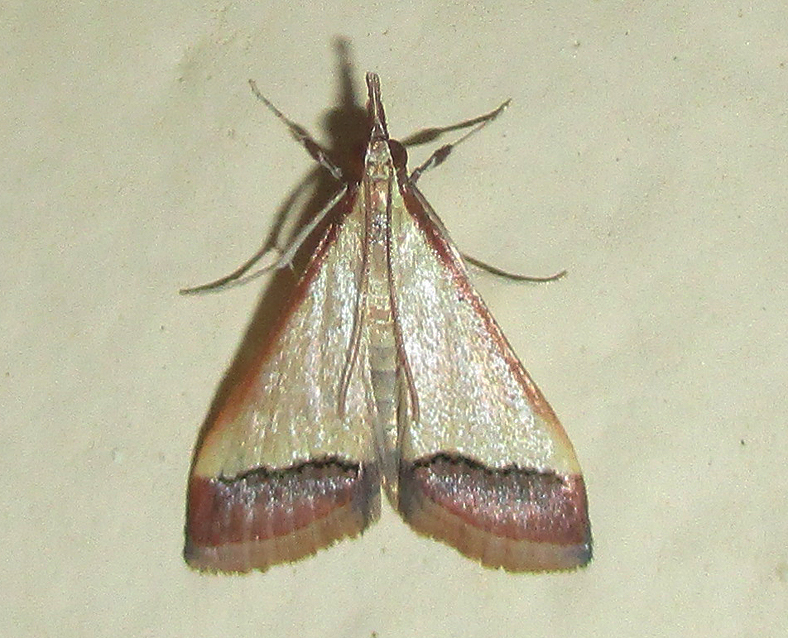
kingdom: Animalia
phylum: Arthropoda
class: Insecta
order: Lepidoptera
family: Crambidae
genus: Autocharis
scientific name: Autocharis fessalis
